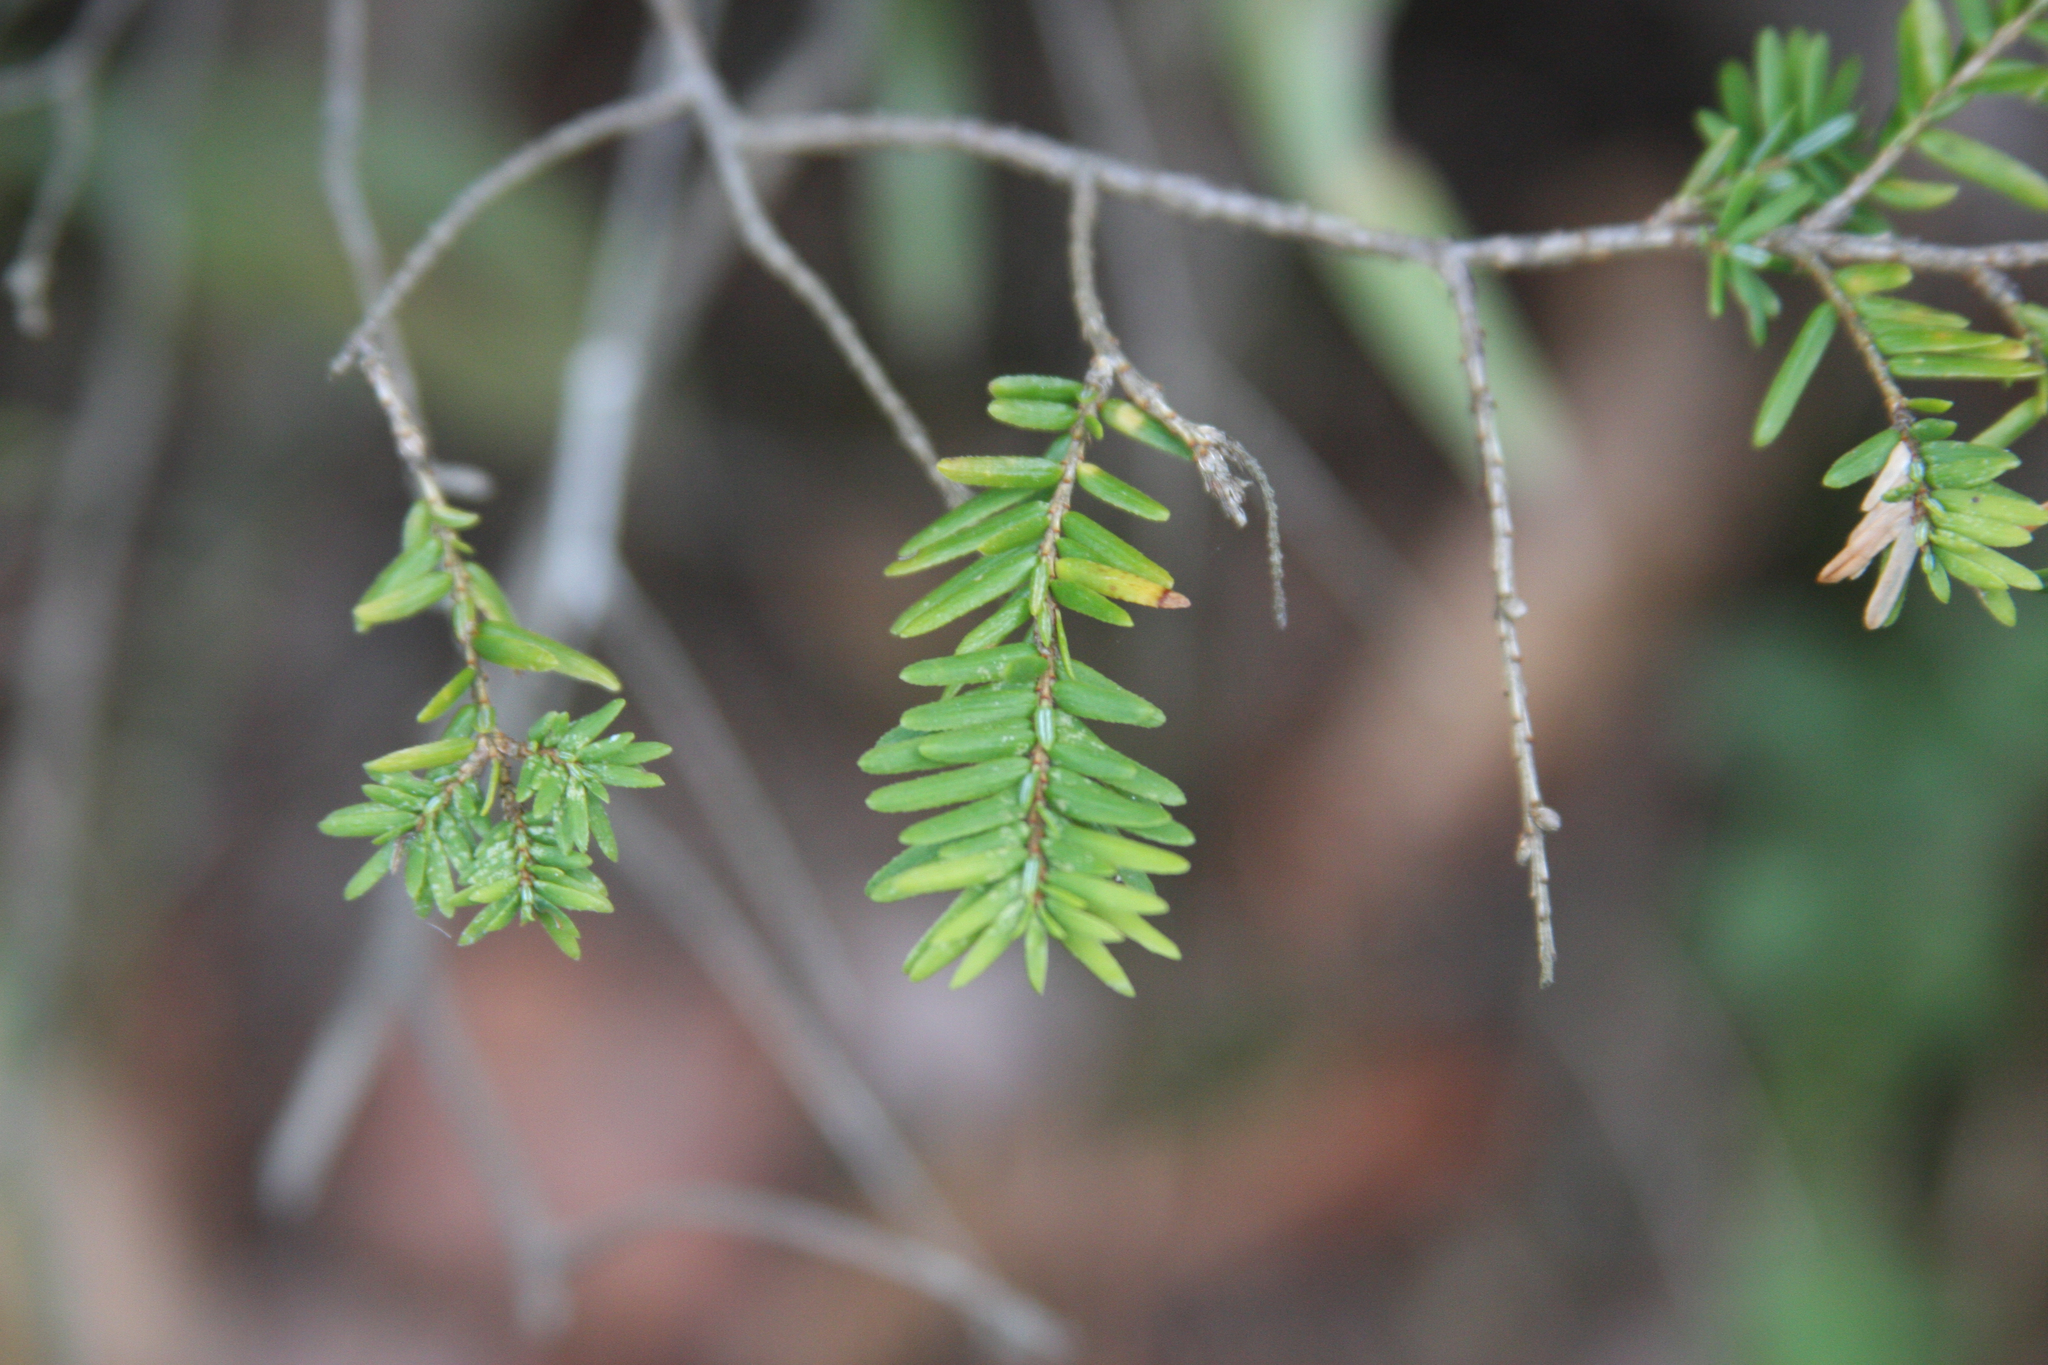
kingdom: Plantae
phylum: Tracheophyta
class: Pinopsida
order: Pinales
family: Pinaceae
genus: Tsuga
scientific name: Tsuga canadensis
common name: Eastern hemlock
